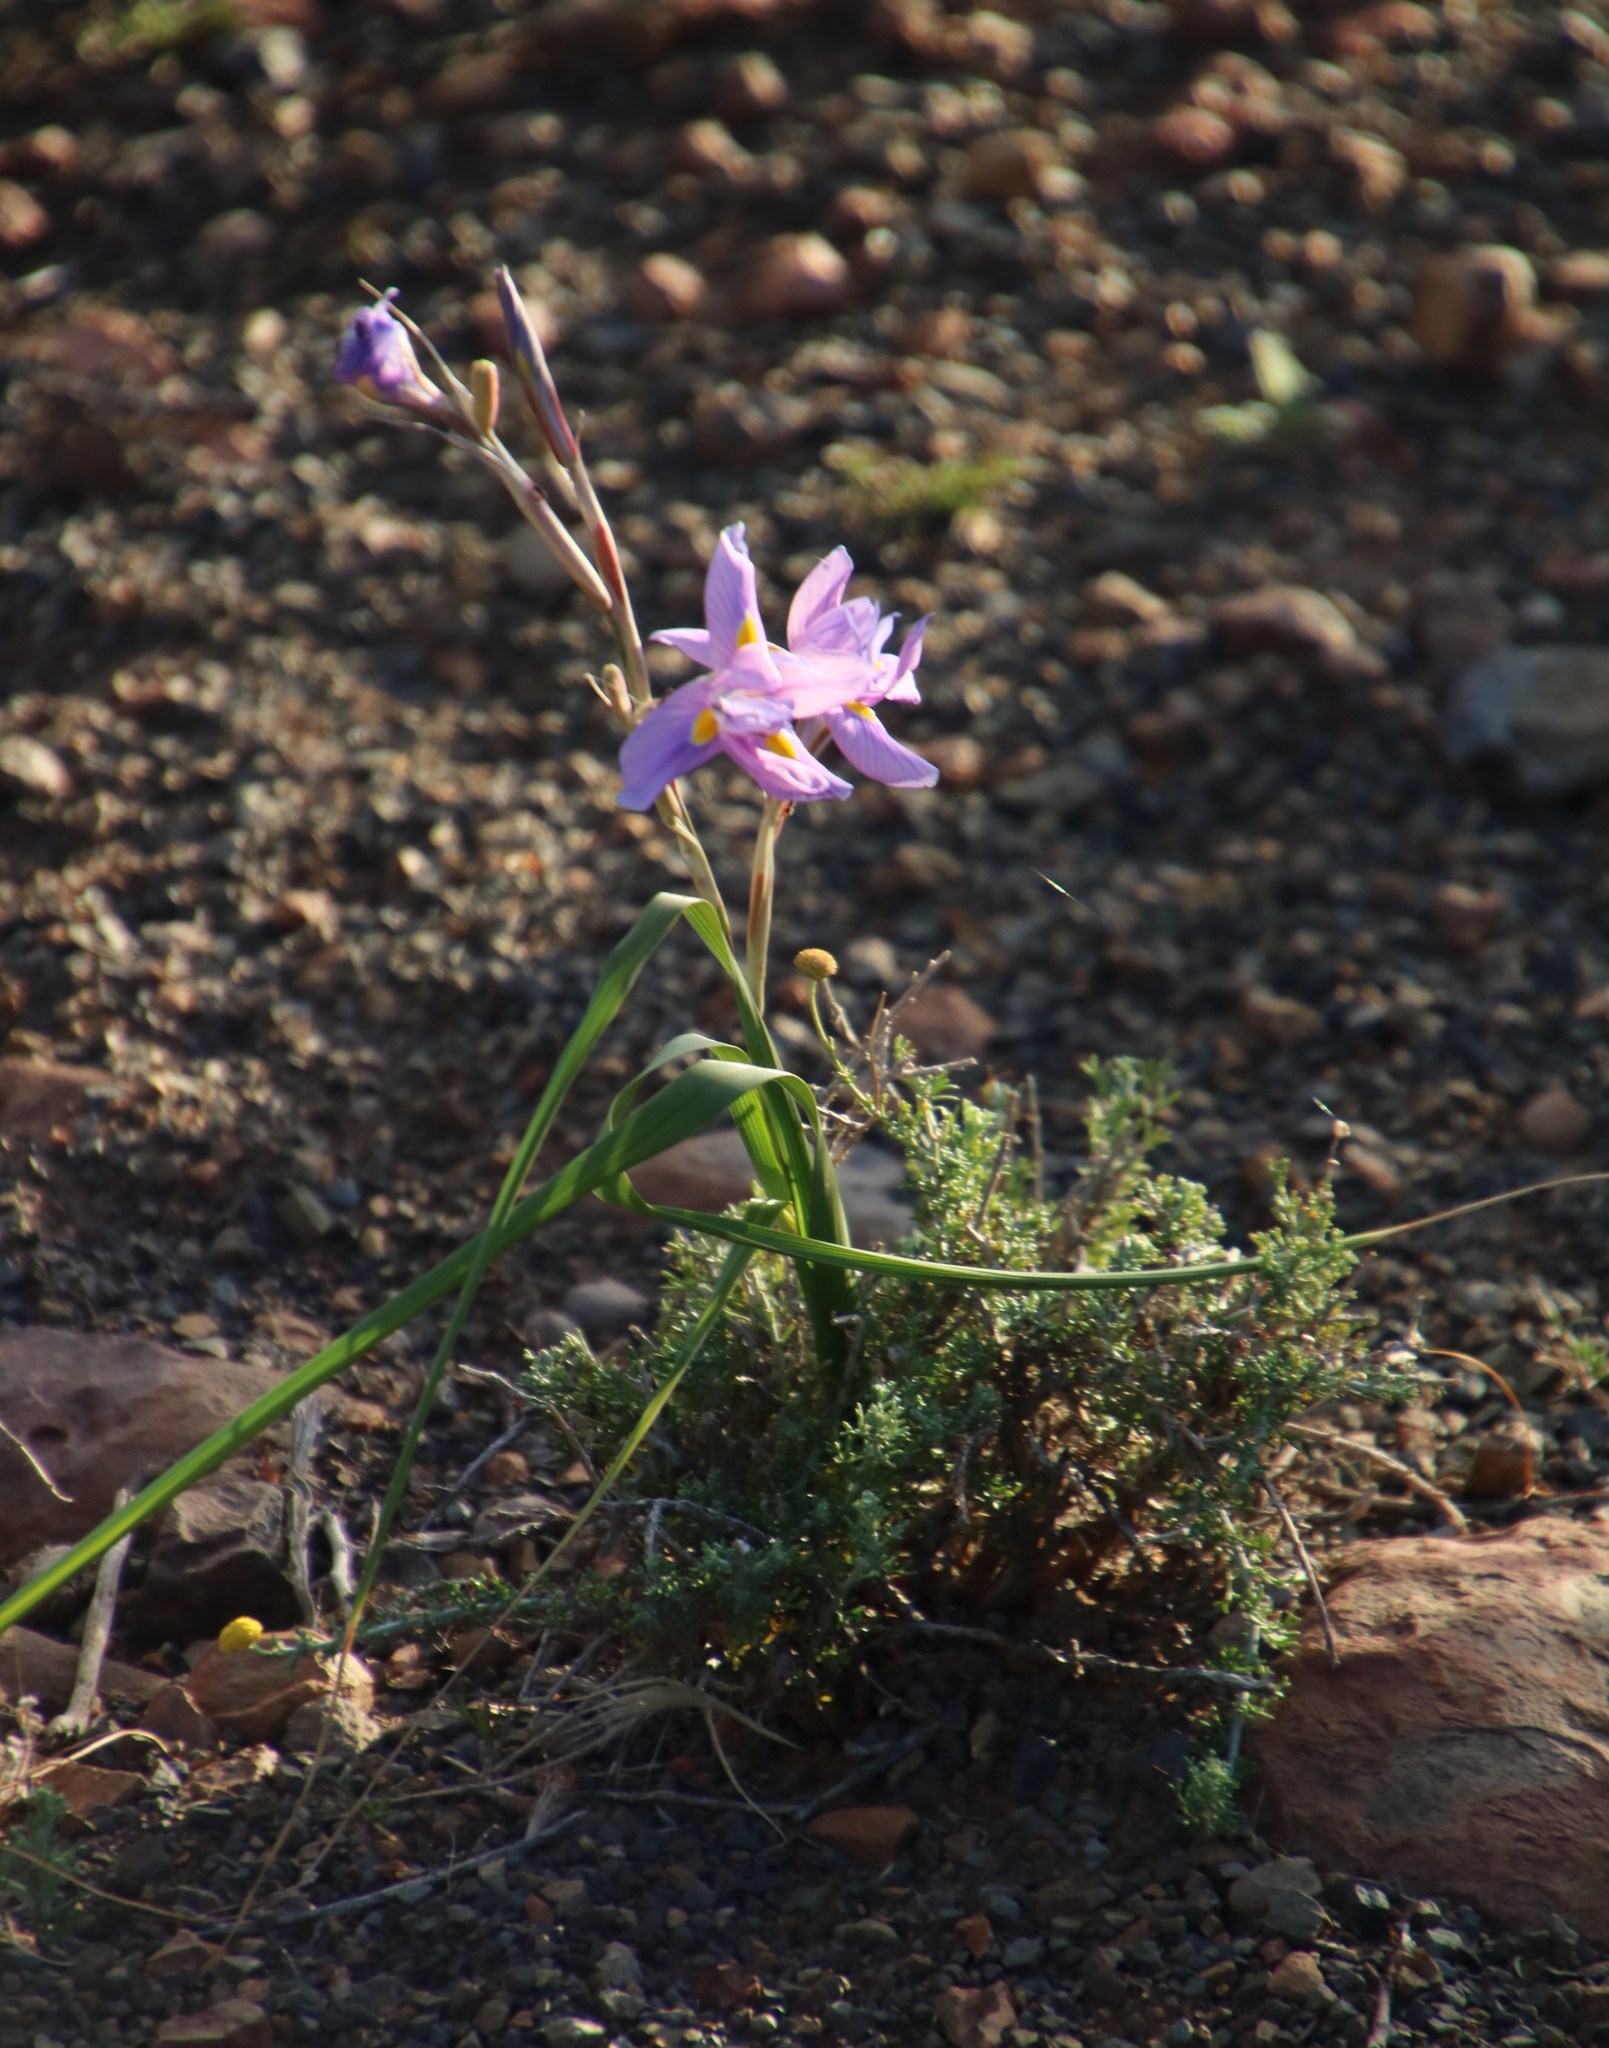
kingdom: Plantae
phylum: Tracheophyta
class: Liliopsida
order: Asparagales
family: Iridaceae
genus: Moraea
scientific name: Moraea polystachya
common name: Blue-tulip
